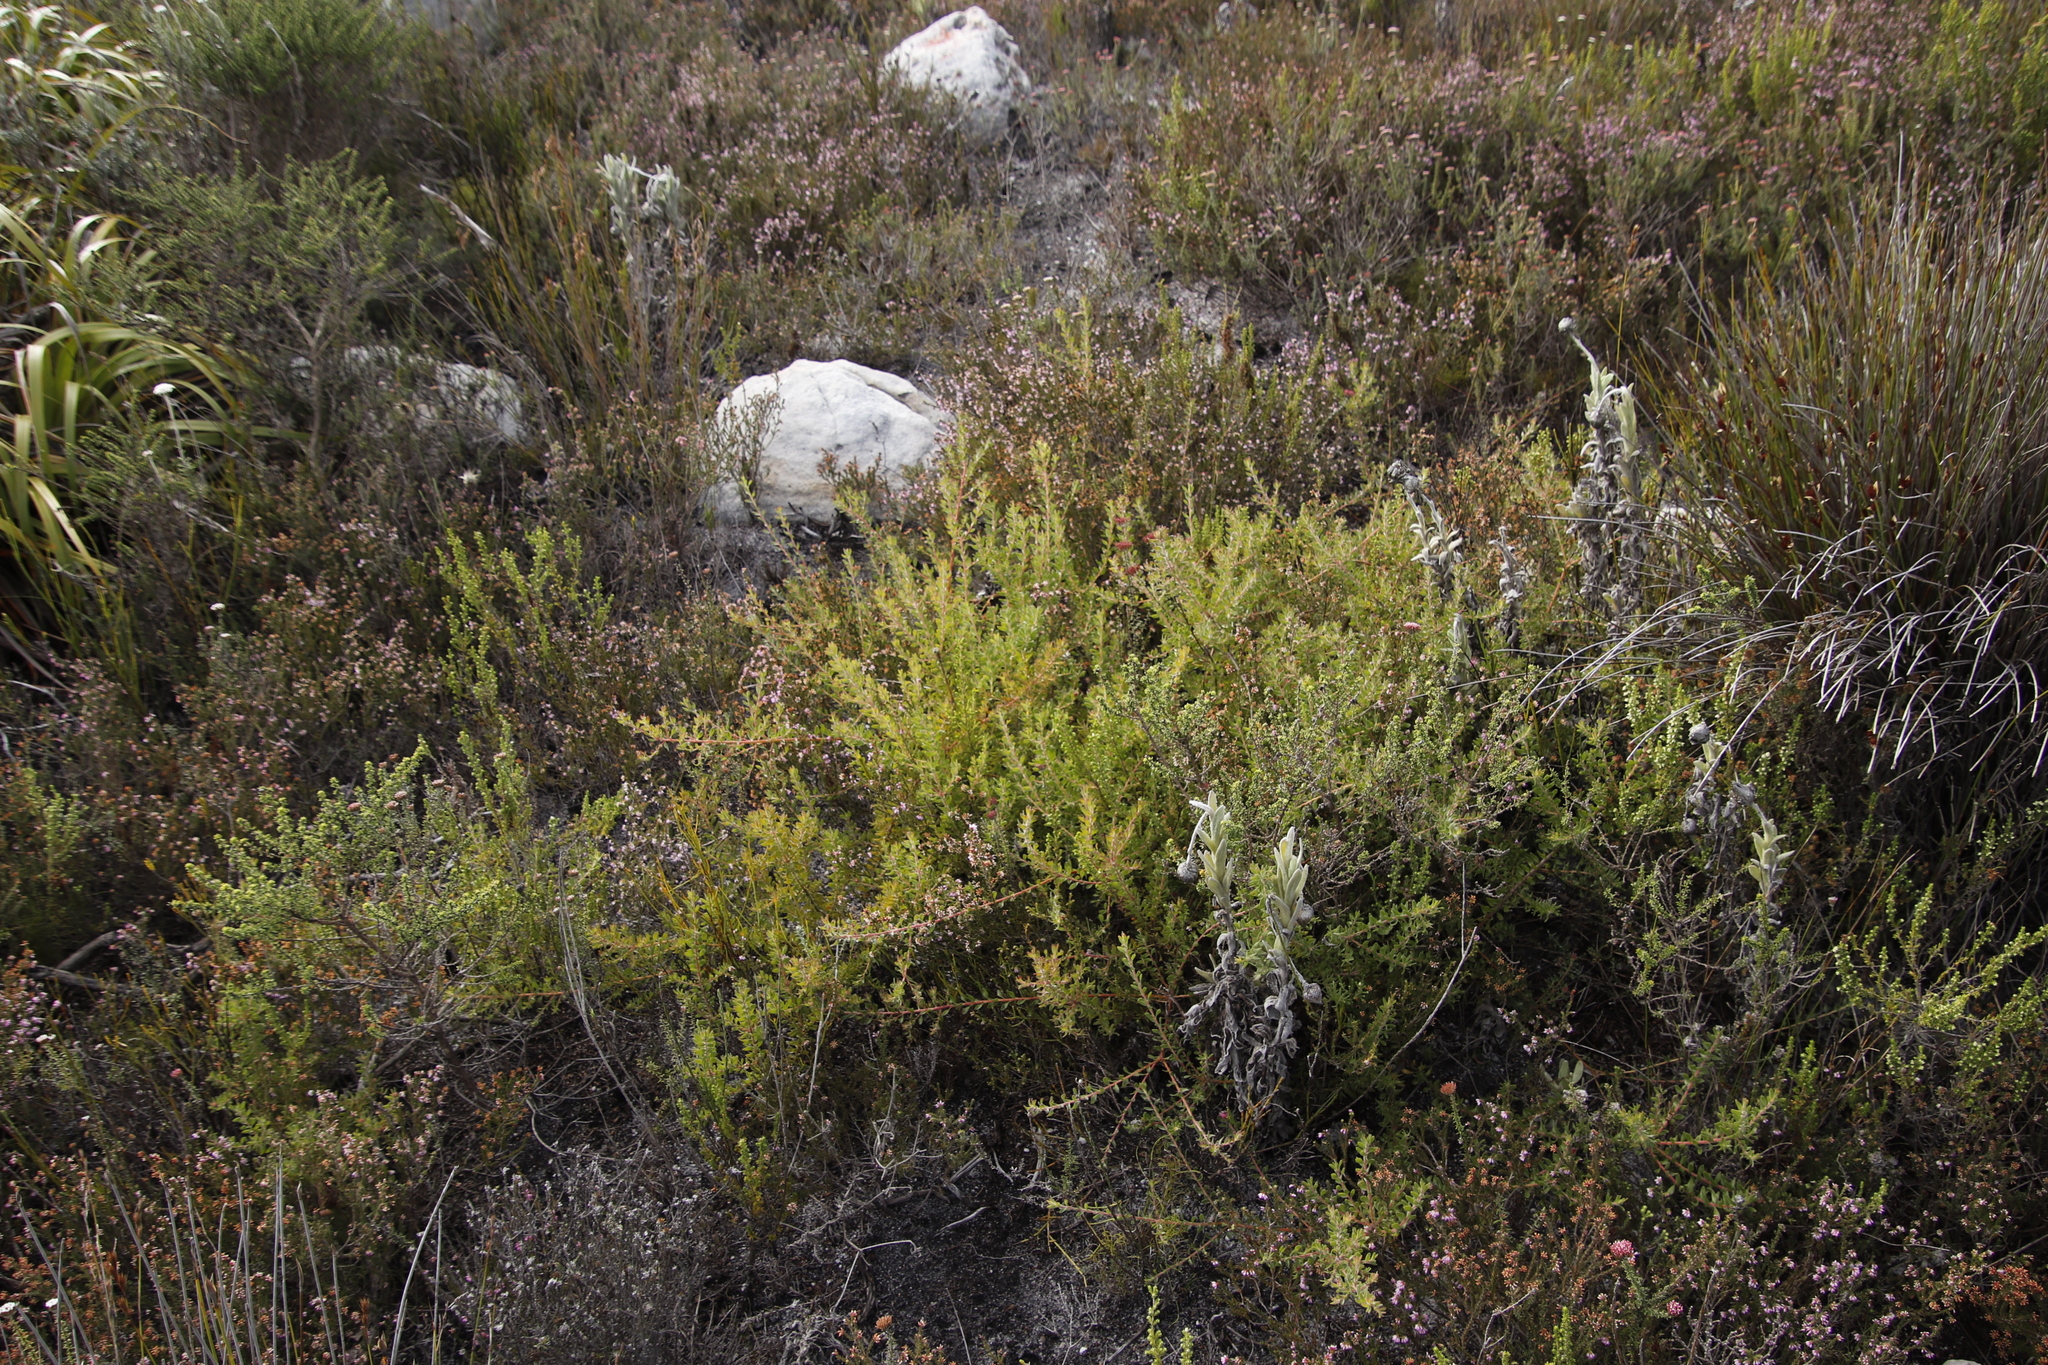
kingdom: Plantae
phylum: Tracheophyta
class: Magnoliopsida
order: Proteales
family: Proteaceae
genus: Diastella
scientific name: Diastella divaricata
